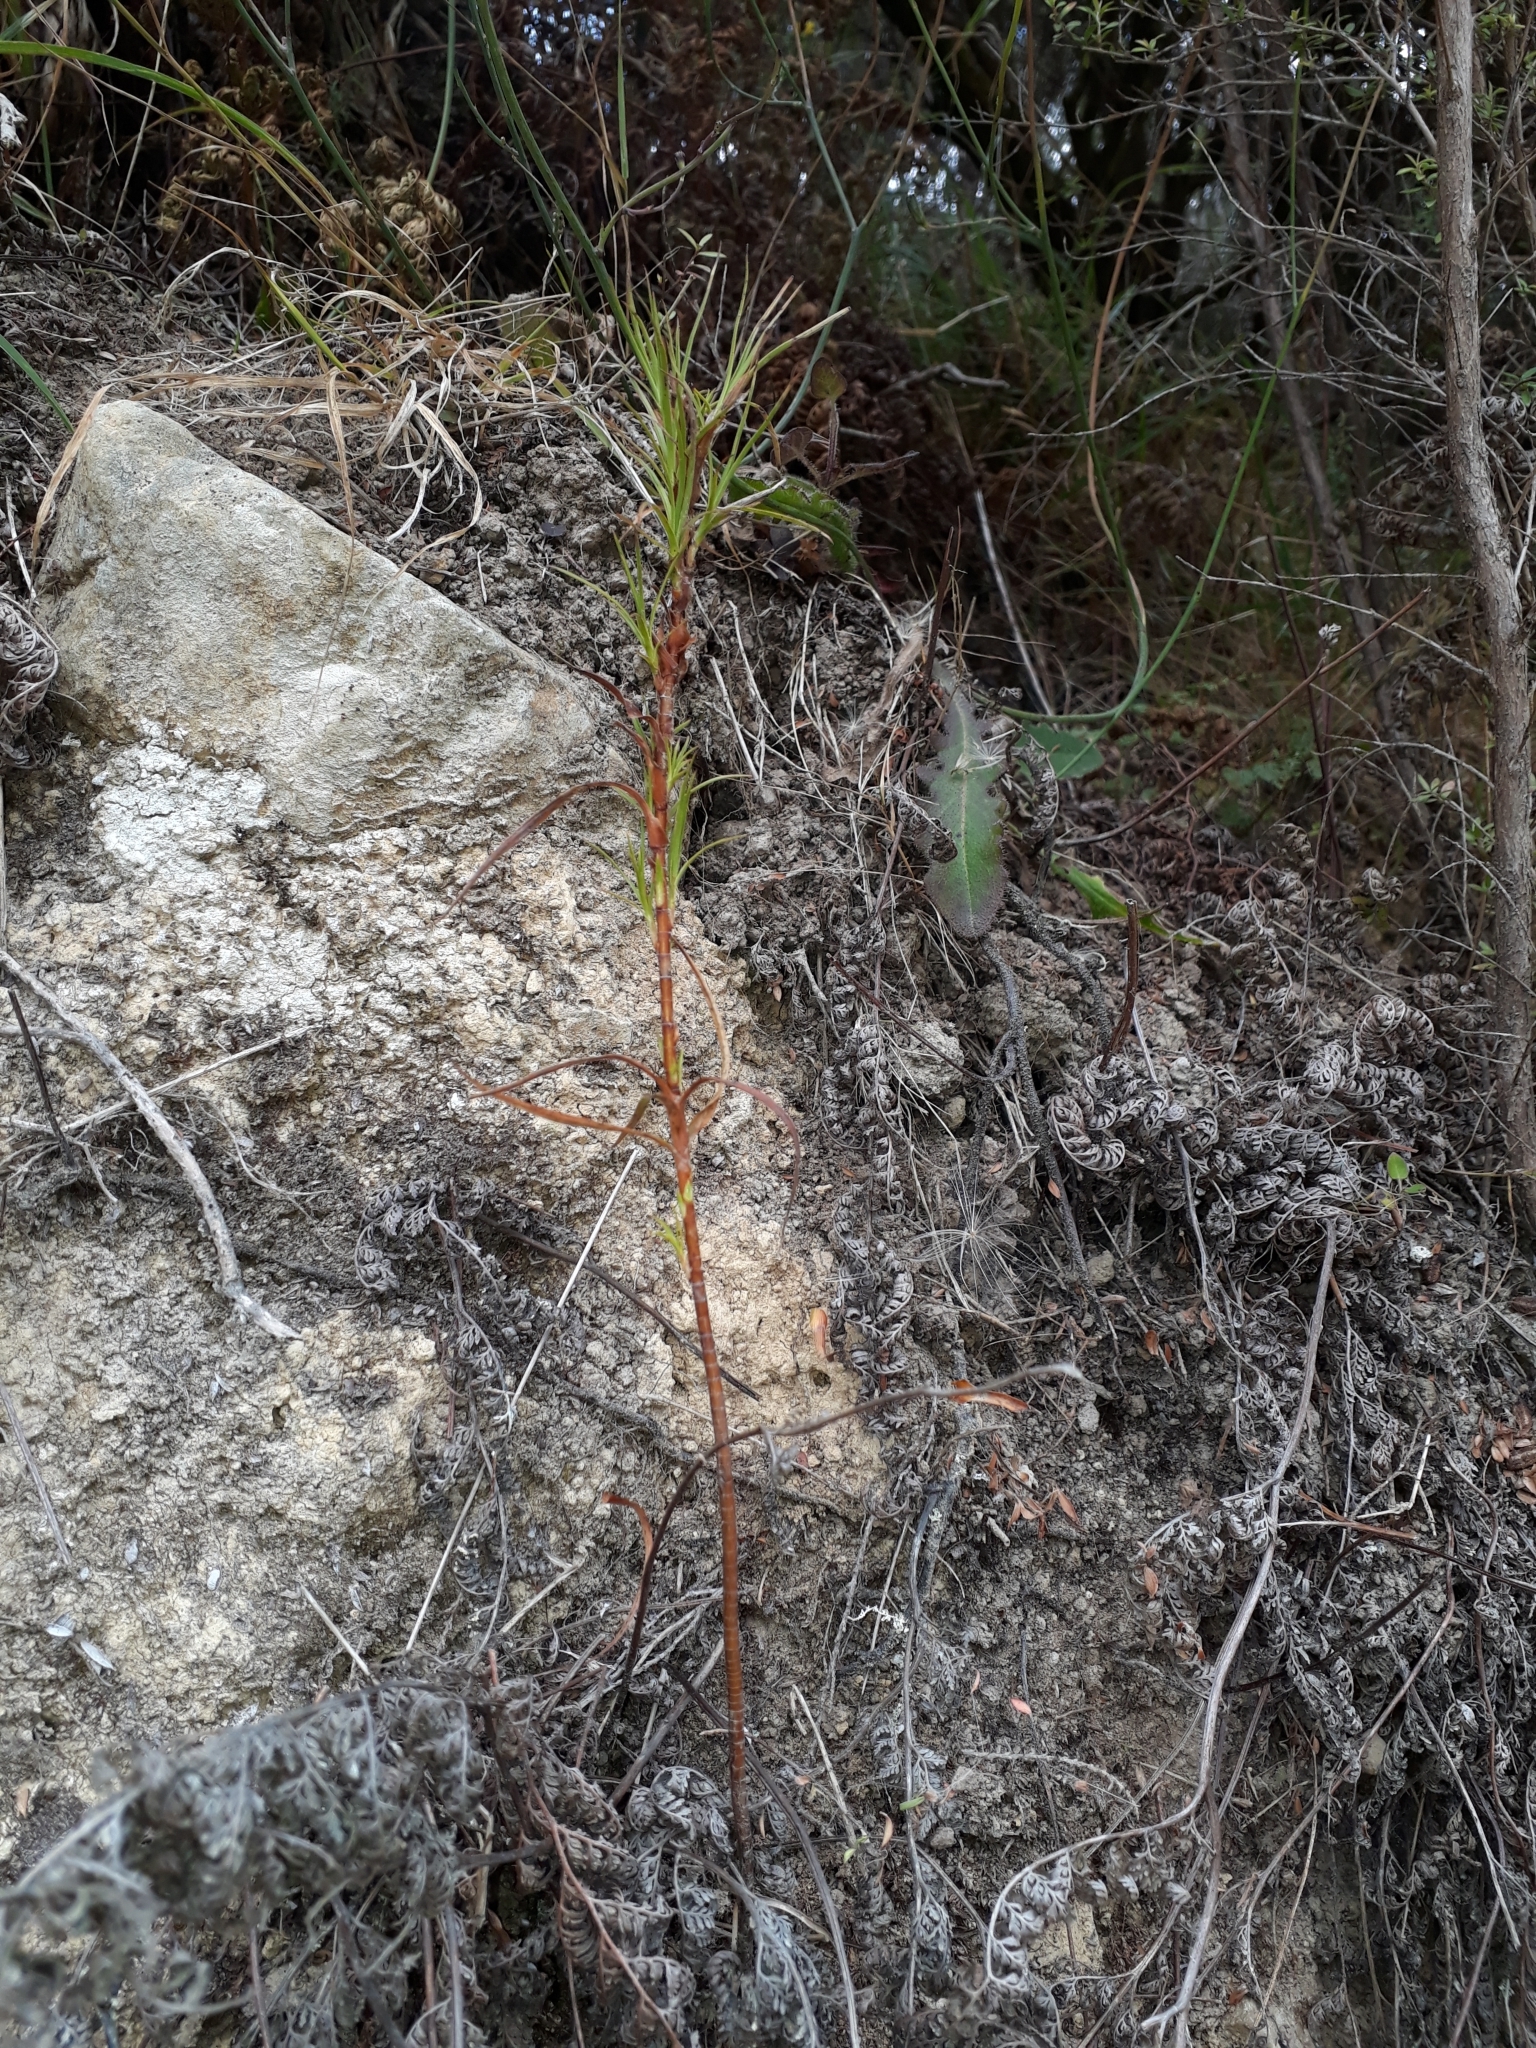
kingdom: Plantae
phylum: Tracheophyta
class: Magnoliopsida
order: Ericales
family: Ericaceae
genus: Dracophyllum
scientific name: Dracophyllum filifolium
